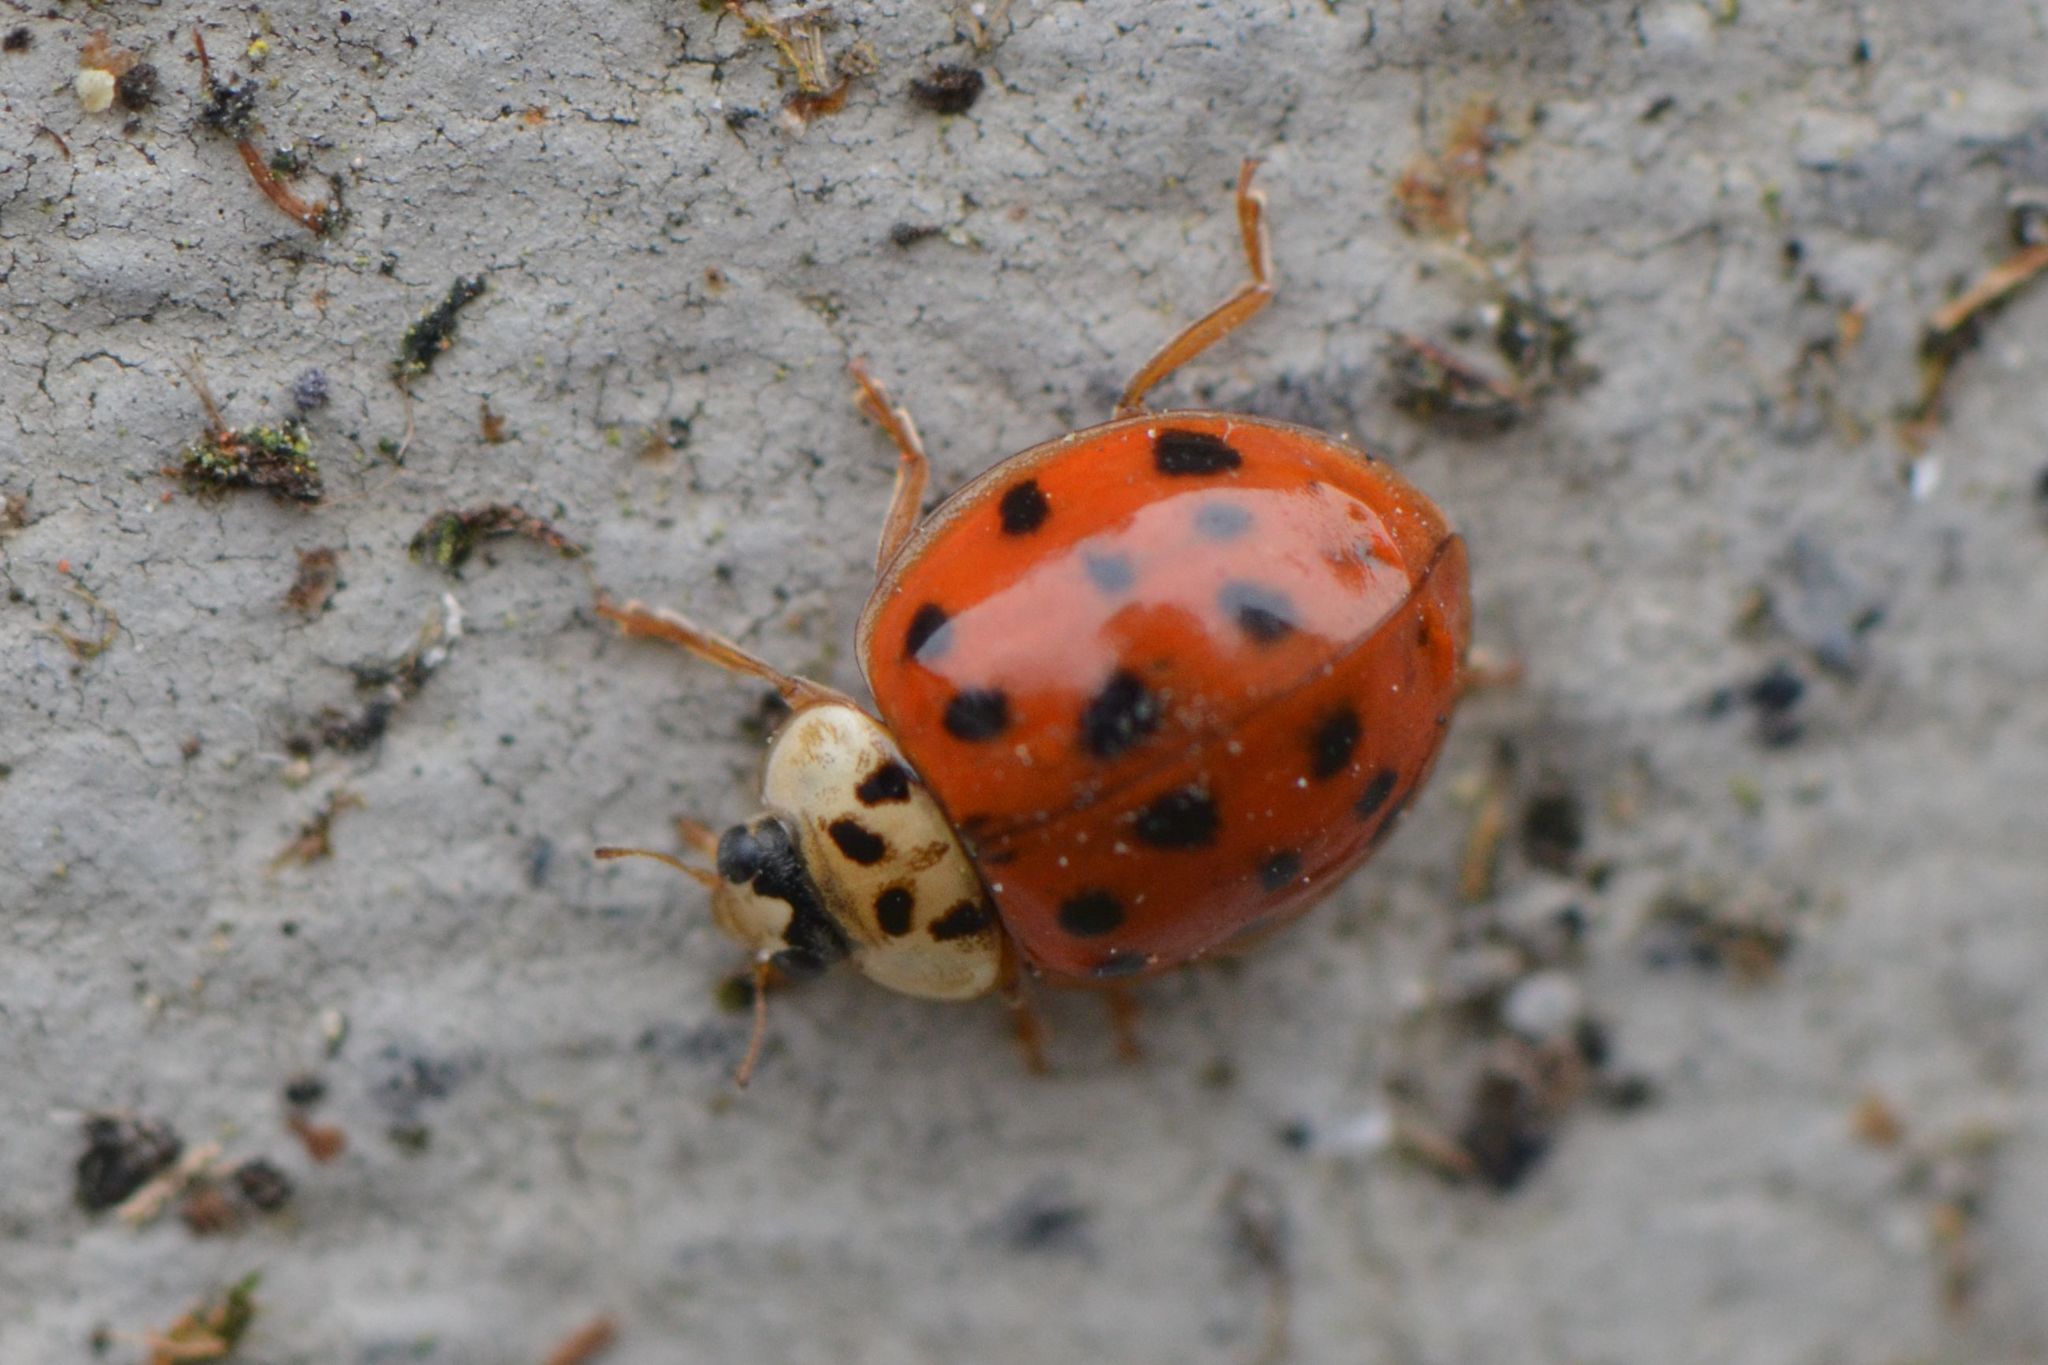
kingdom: Animalia
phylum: Arthropoda
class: Insecta
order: Coleoptera
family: Coccinellidae
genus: Harmonia
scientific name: Harmonia axyridis
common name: Harlequin ladybird
